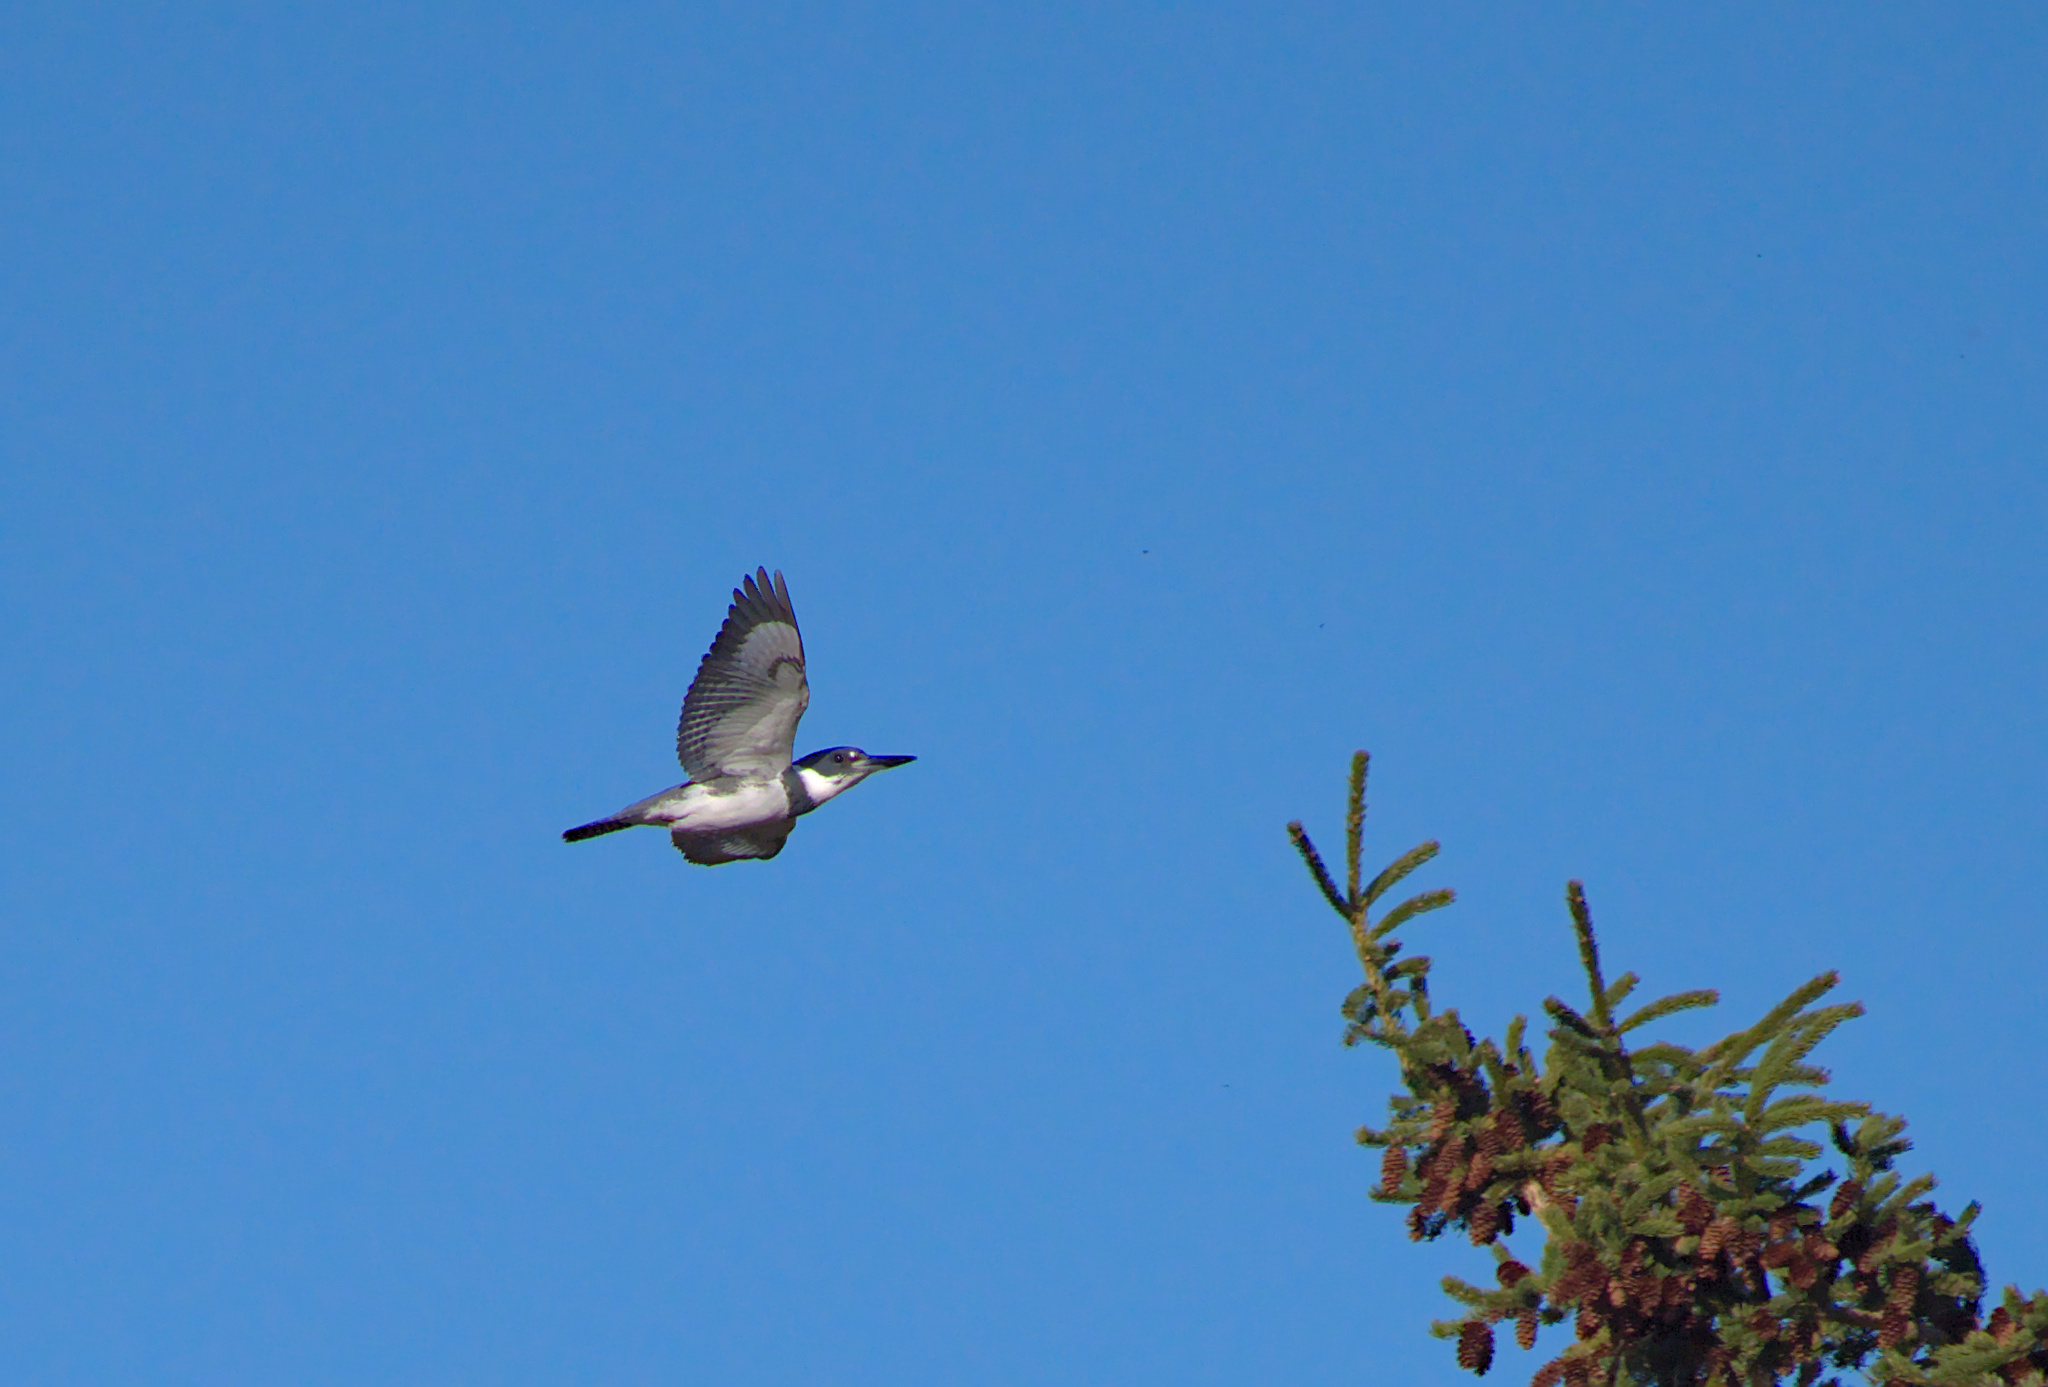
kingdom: Animalia
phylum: Chordata
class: Aves
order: Coraciiformes
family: Alcedinidae
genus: Megaceryle
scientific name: Megaceryle alcyon
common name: Belted kingfisher
